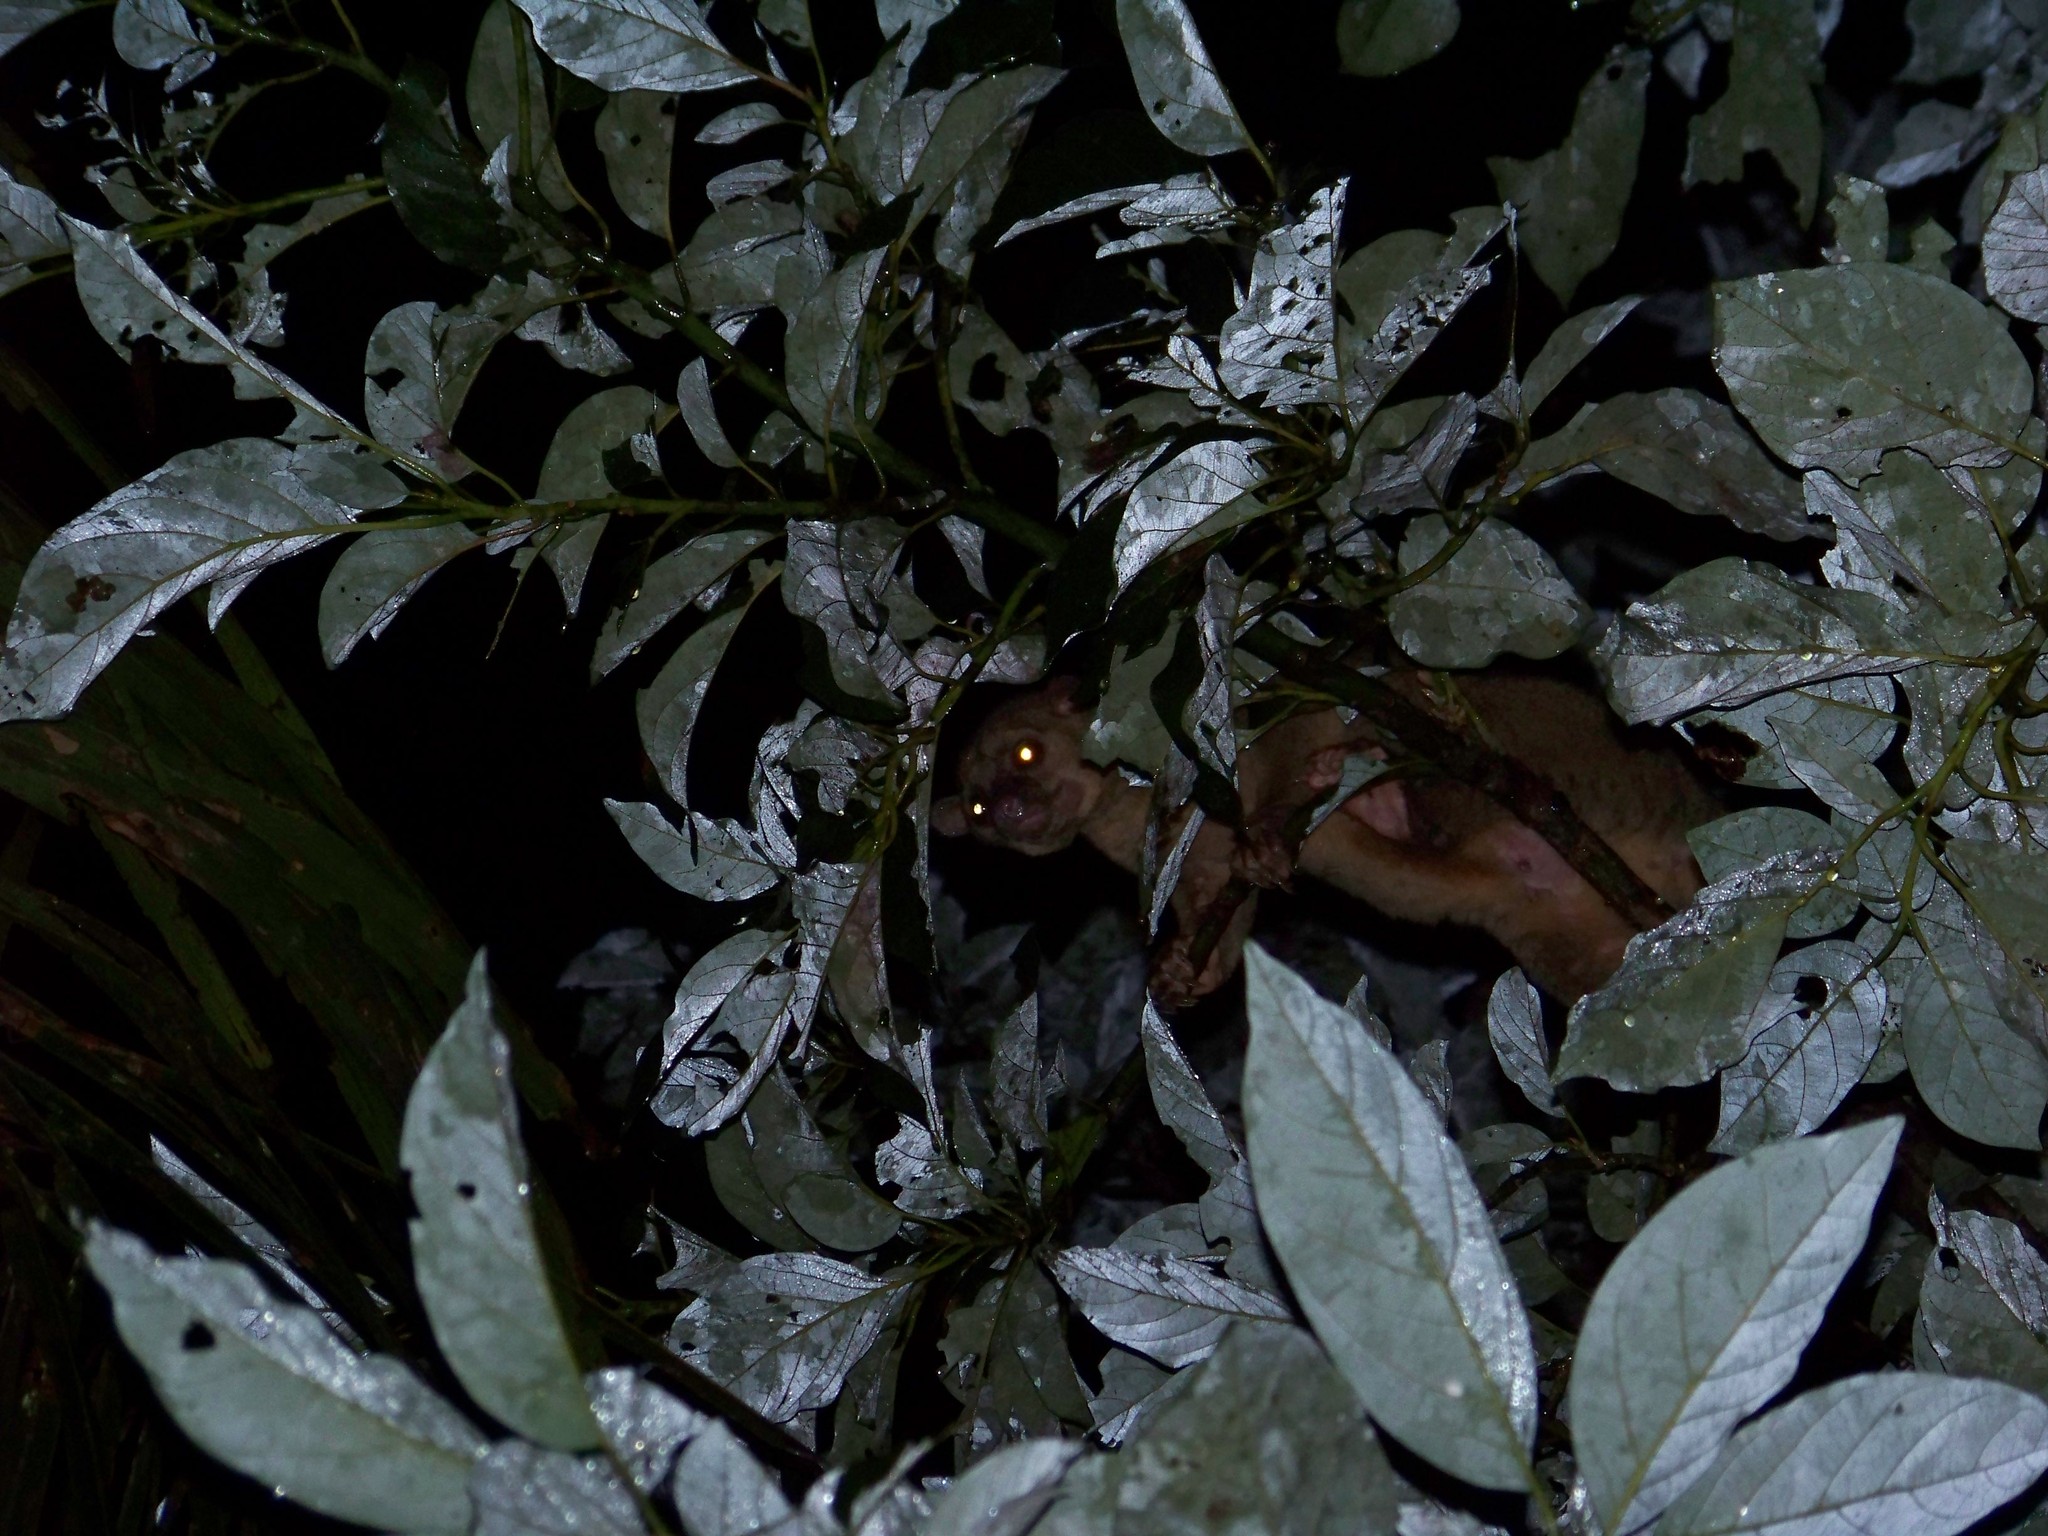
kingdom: Animalia
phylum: Chordata
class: Mammalia
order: Carnivora
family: Procyonidae
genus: Potos
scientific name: Potos flavus
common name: Kinkajou
